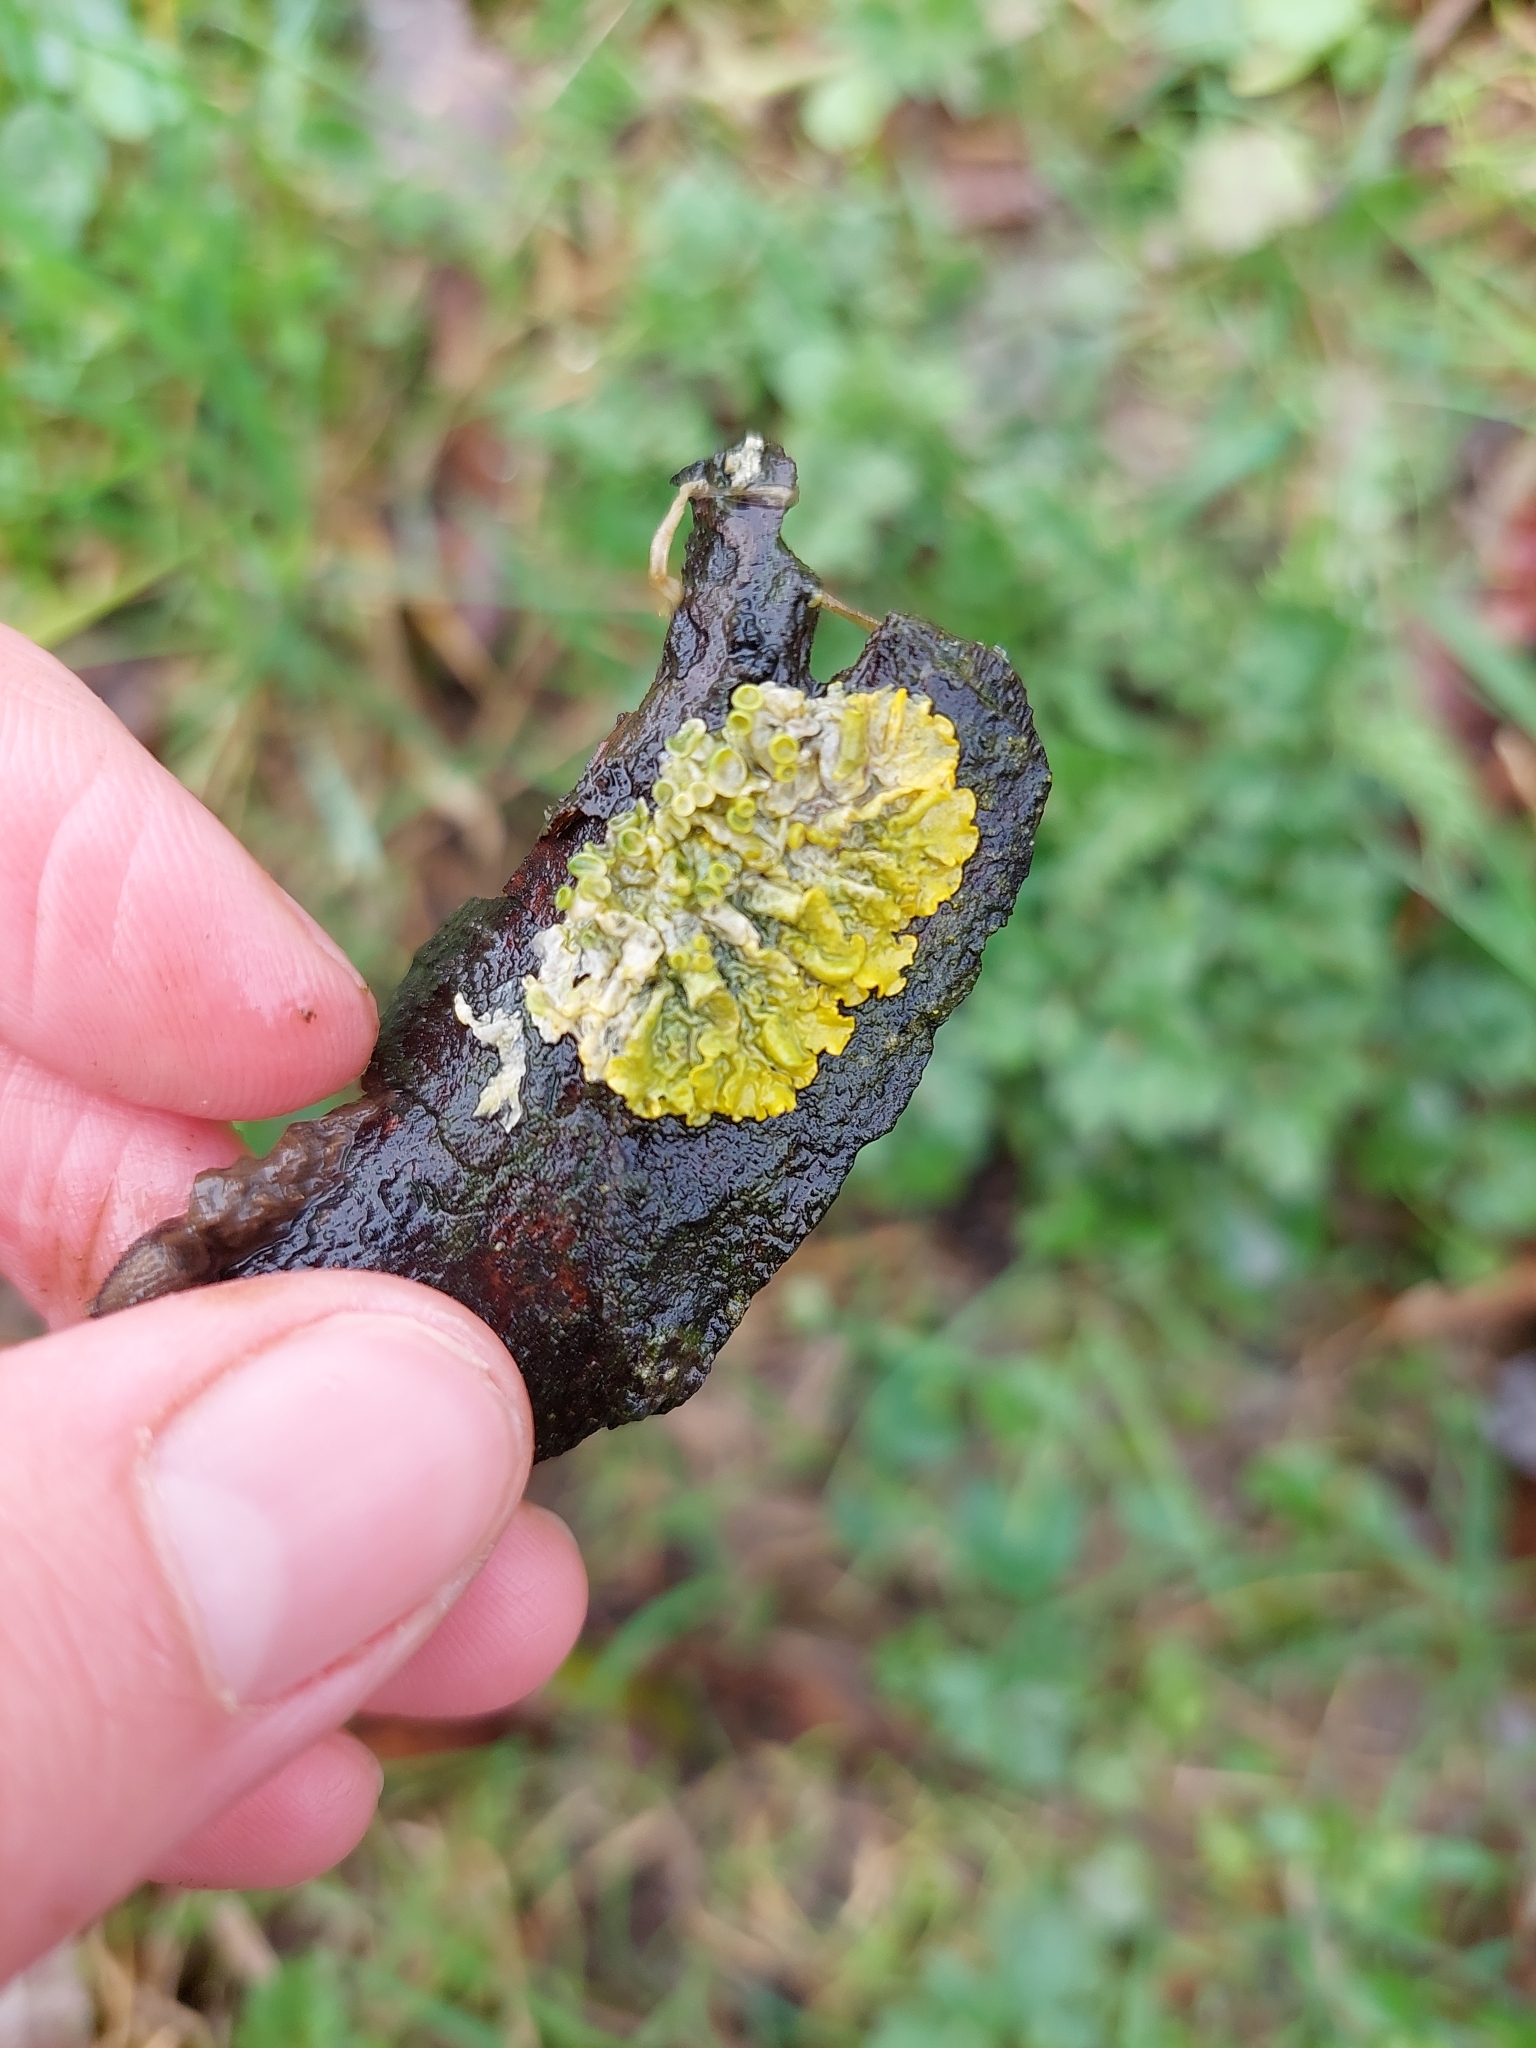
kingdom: Fungi
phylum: Ascomycota
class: Lecanoromycetes
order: Teloschistales
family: Teloschistaceae
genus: Xanthoria
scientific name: Xanthoria parietina
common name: Common orange lichen
